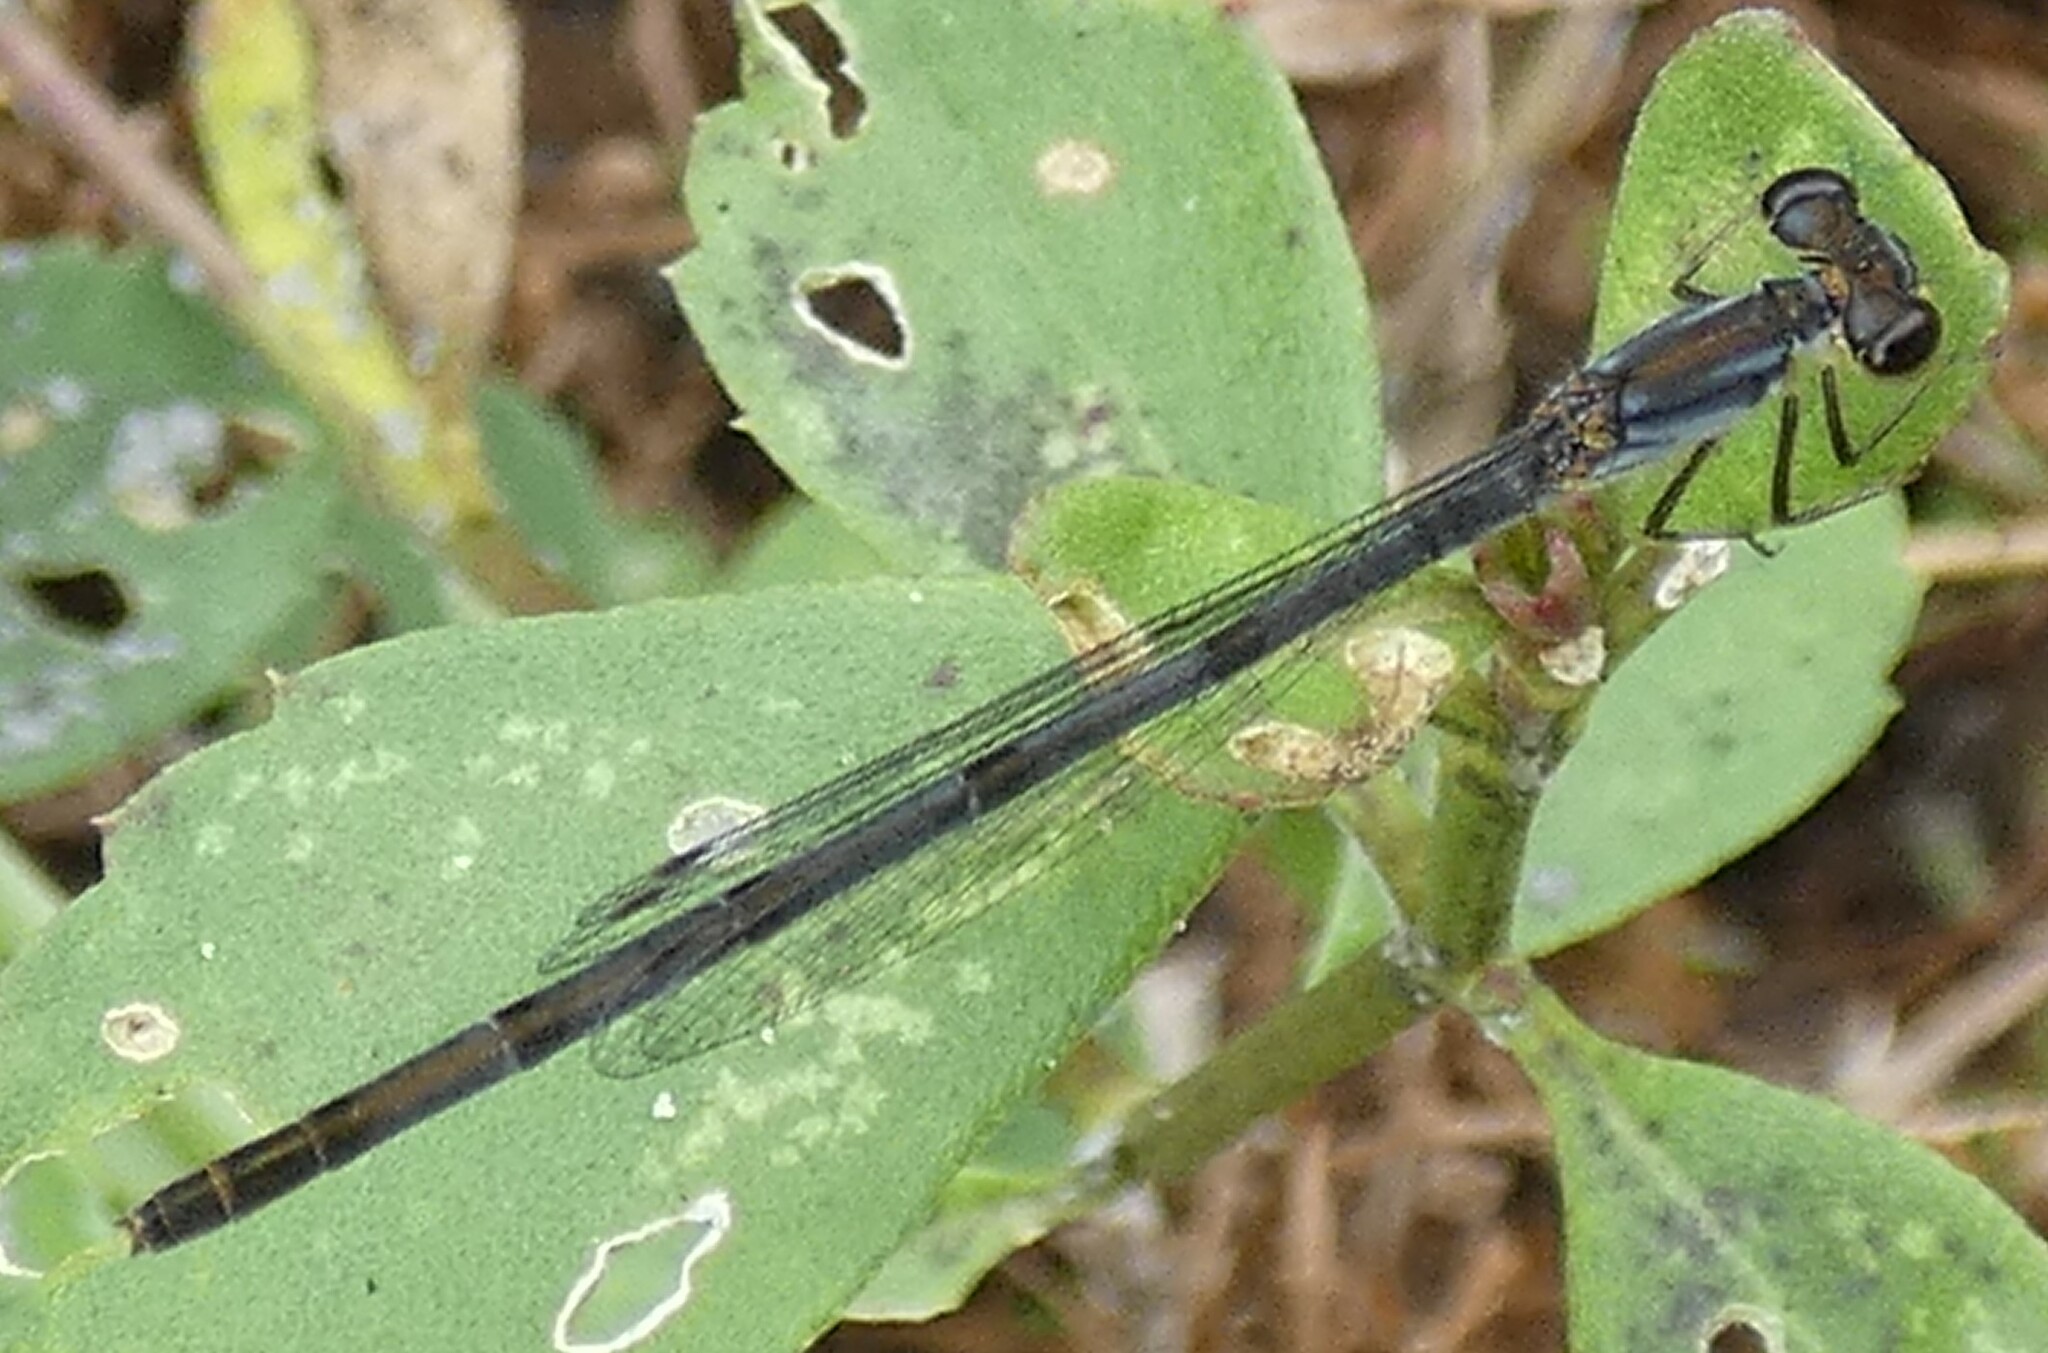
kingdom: Animalia
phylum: Arthropoda
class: Insecta
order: Odonata
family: Coenagrionidae
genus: Ischnura
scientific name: Ischnura posita
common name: Fragile forktail
